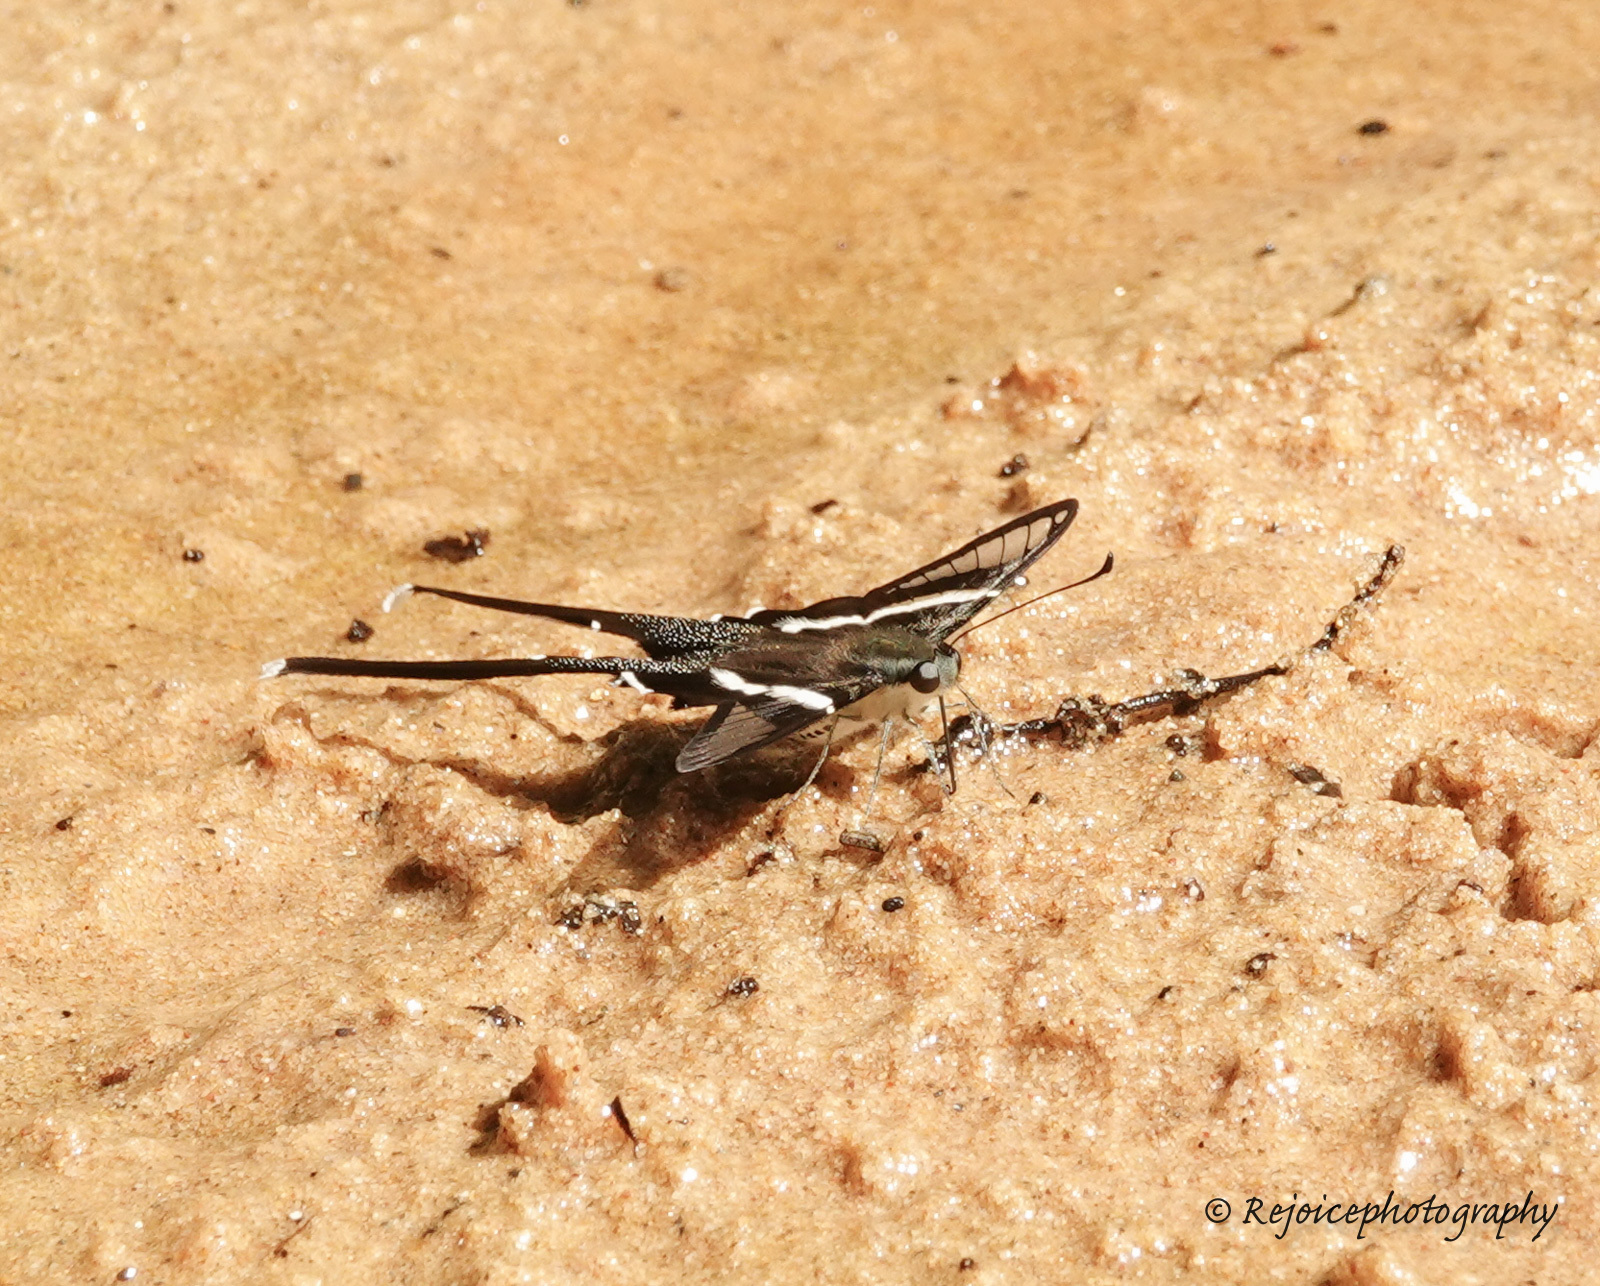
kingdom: Animalia
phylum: Arthropoda
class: Insecta
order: Lepidoptera
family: Papilionidae
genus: Lamproptera
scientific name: Lamproptera curius
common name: White dragontail
